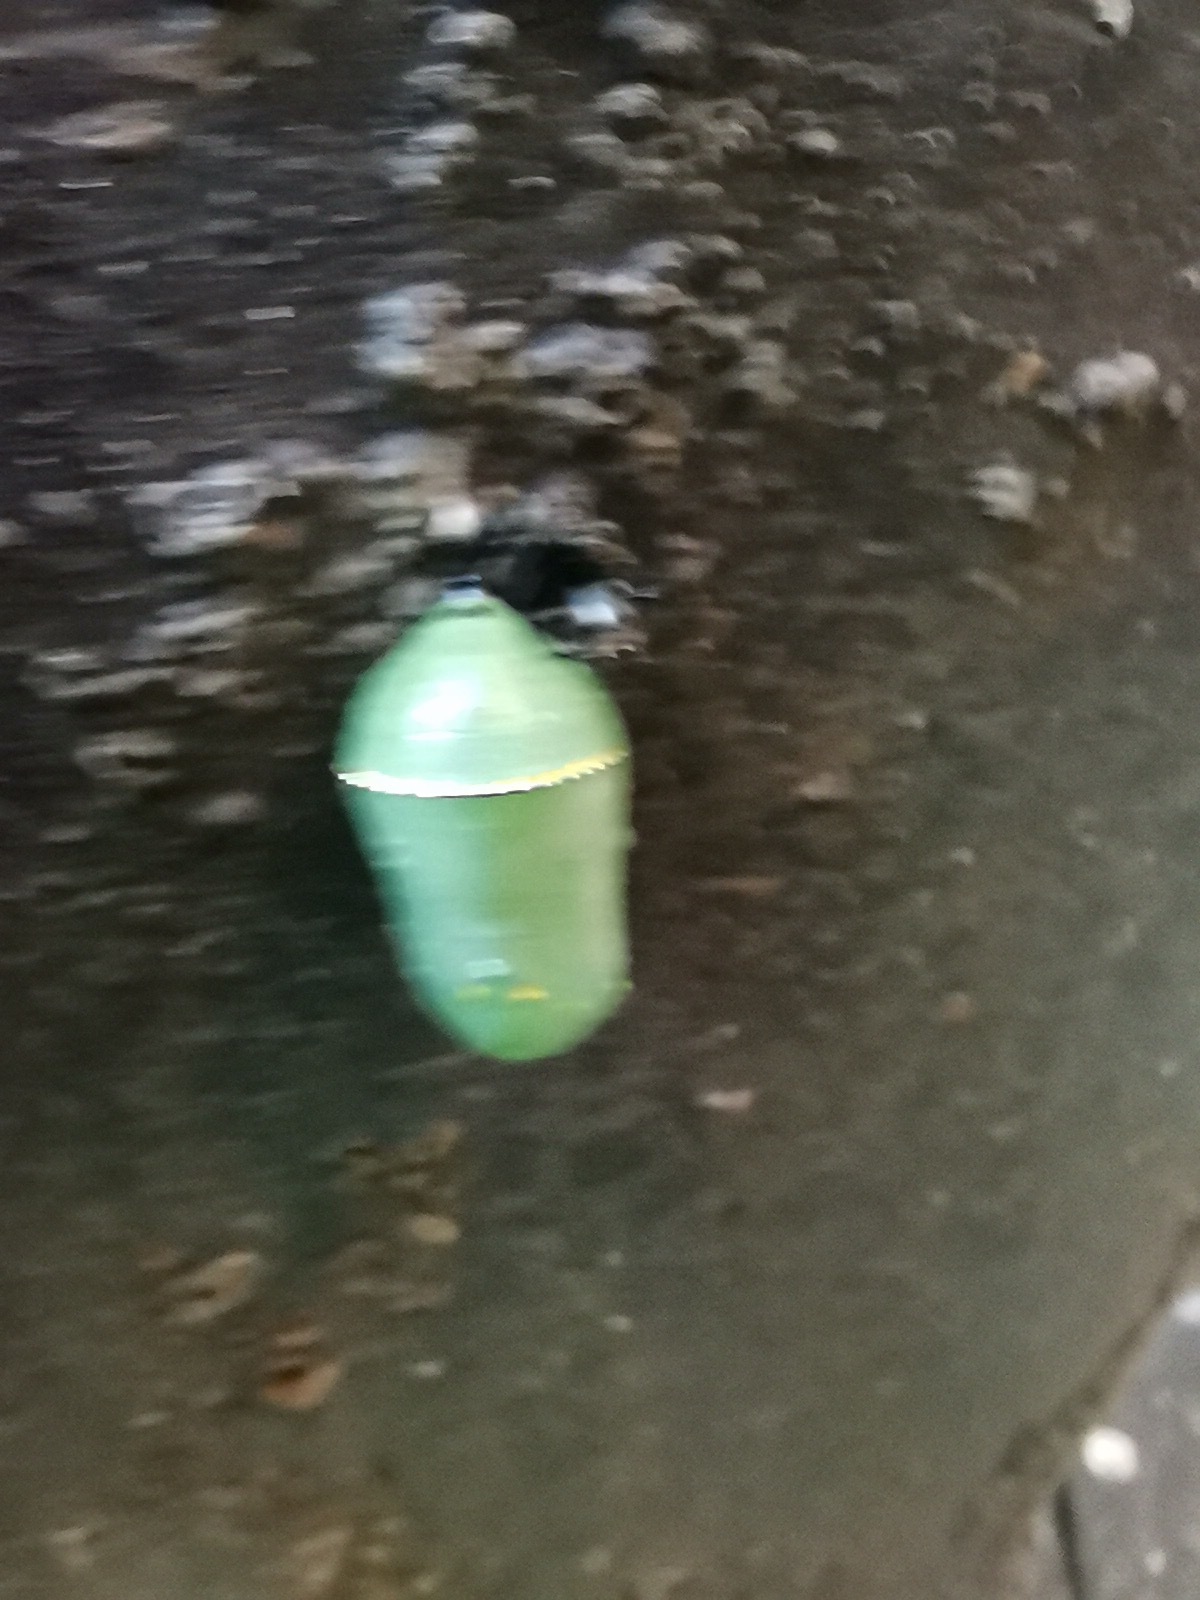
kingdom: Animalia
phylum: Arthropoda
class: Insecta
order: Lepidoptera
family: Nymphalidae
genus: Danaus
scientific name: Danaus plexippus
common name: Monarch
